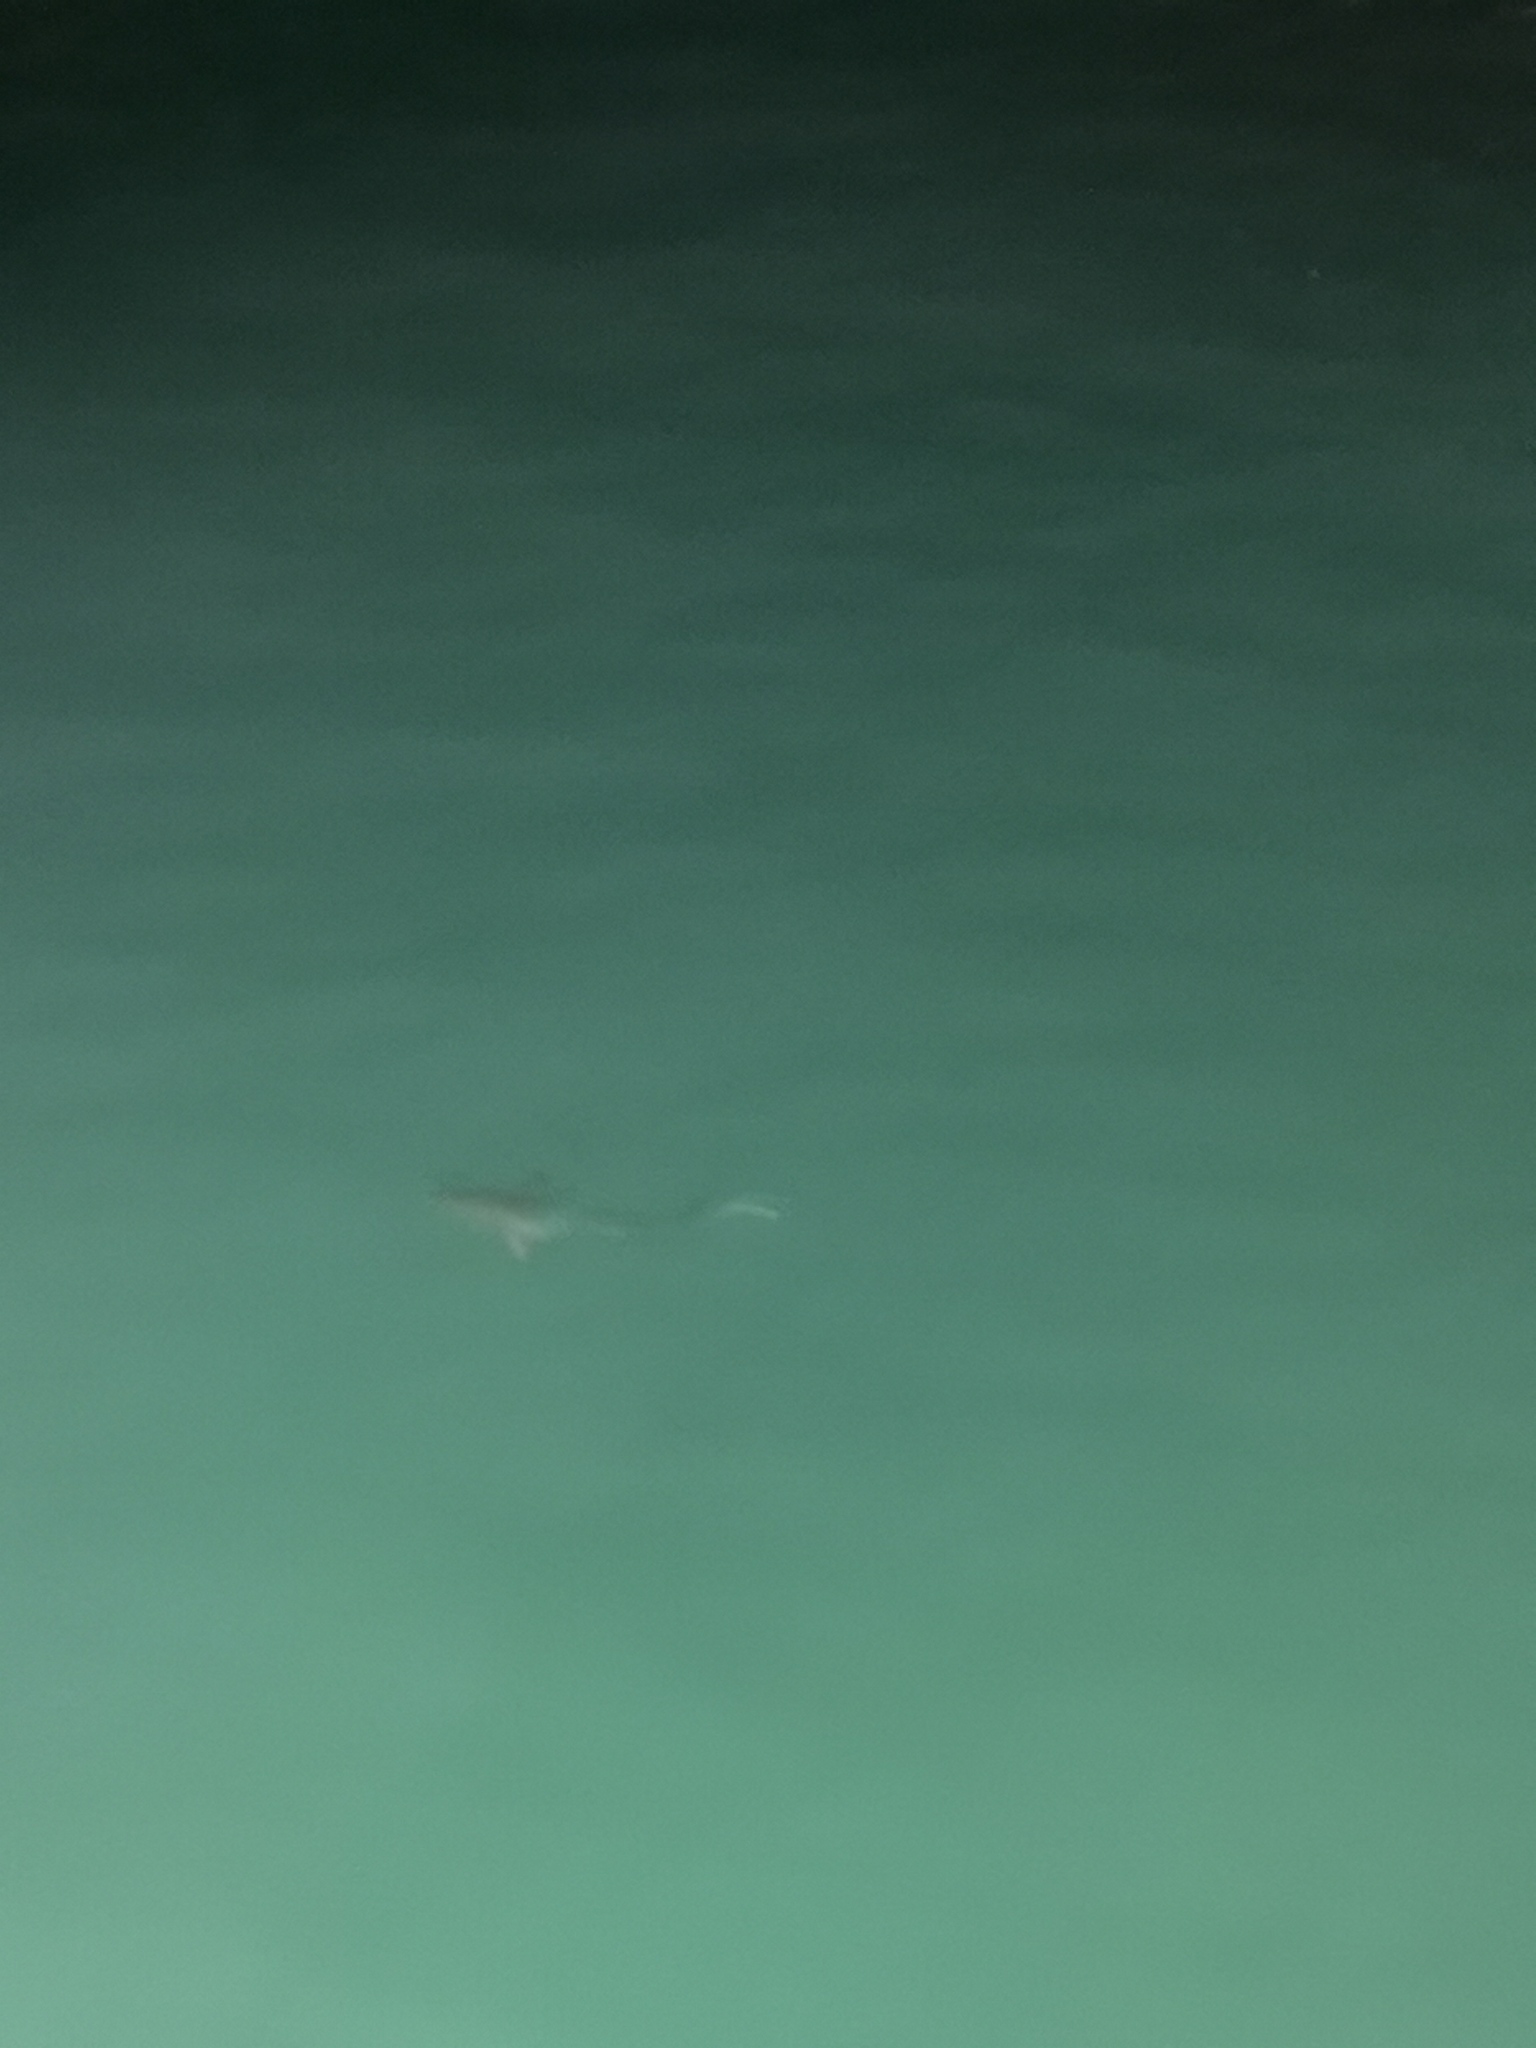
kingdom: Animalia
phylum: Chordata
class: Elasmobranchii
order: Carcharhiniformes
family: Carcharhinidae
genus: Carcharhinus
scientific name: Carcharhinus limbatus
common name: Blacktip shark
